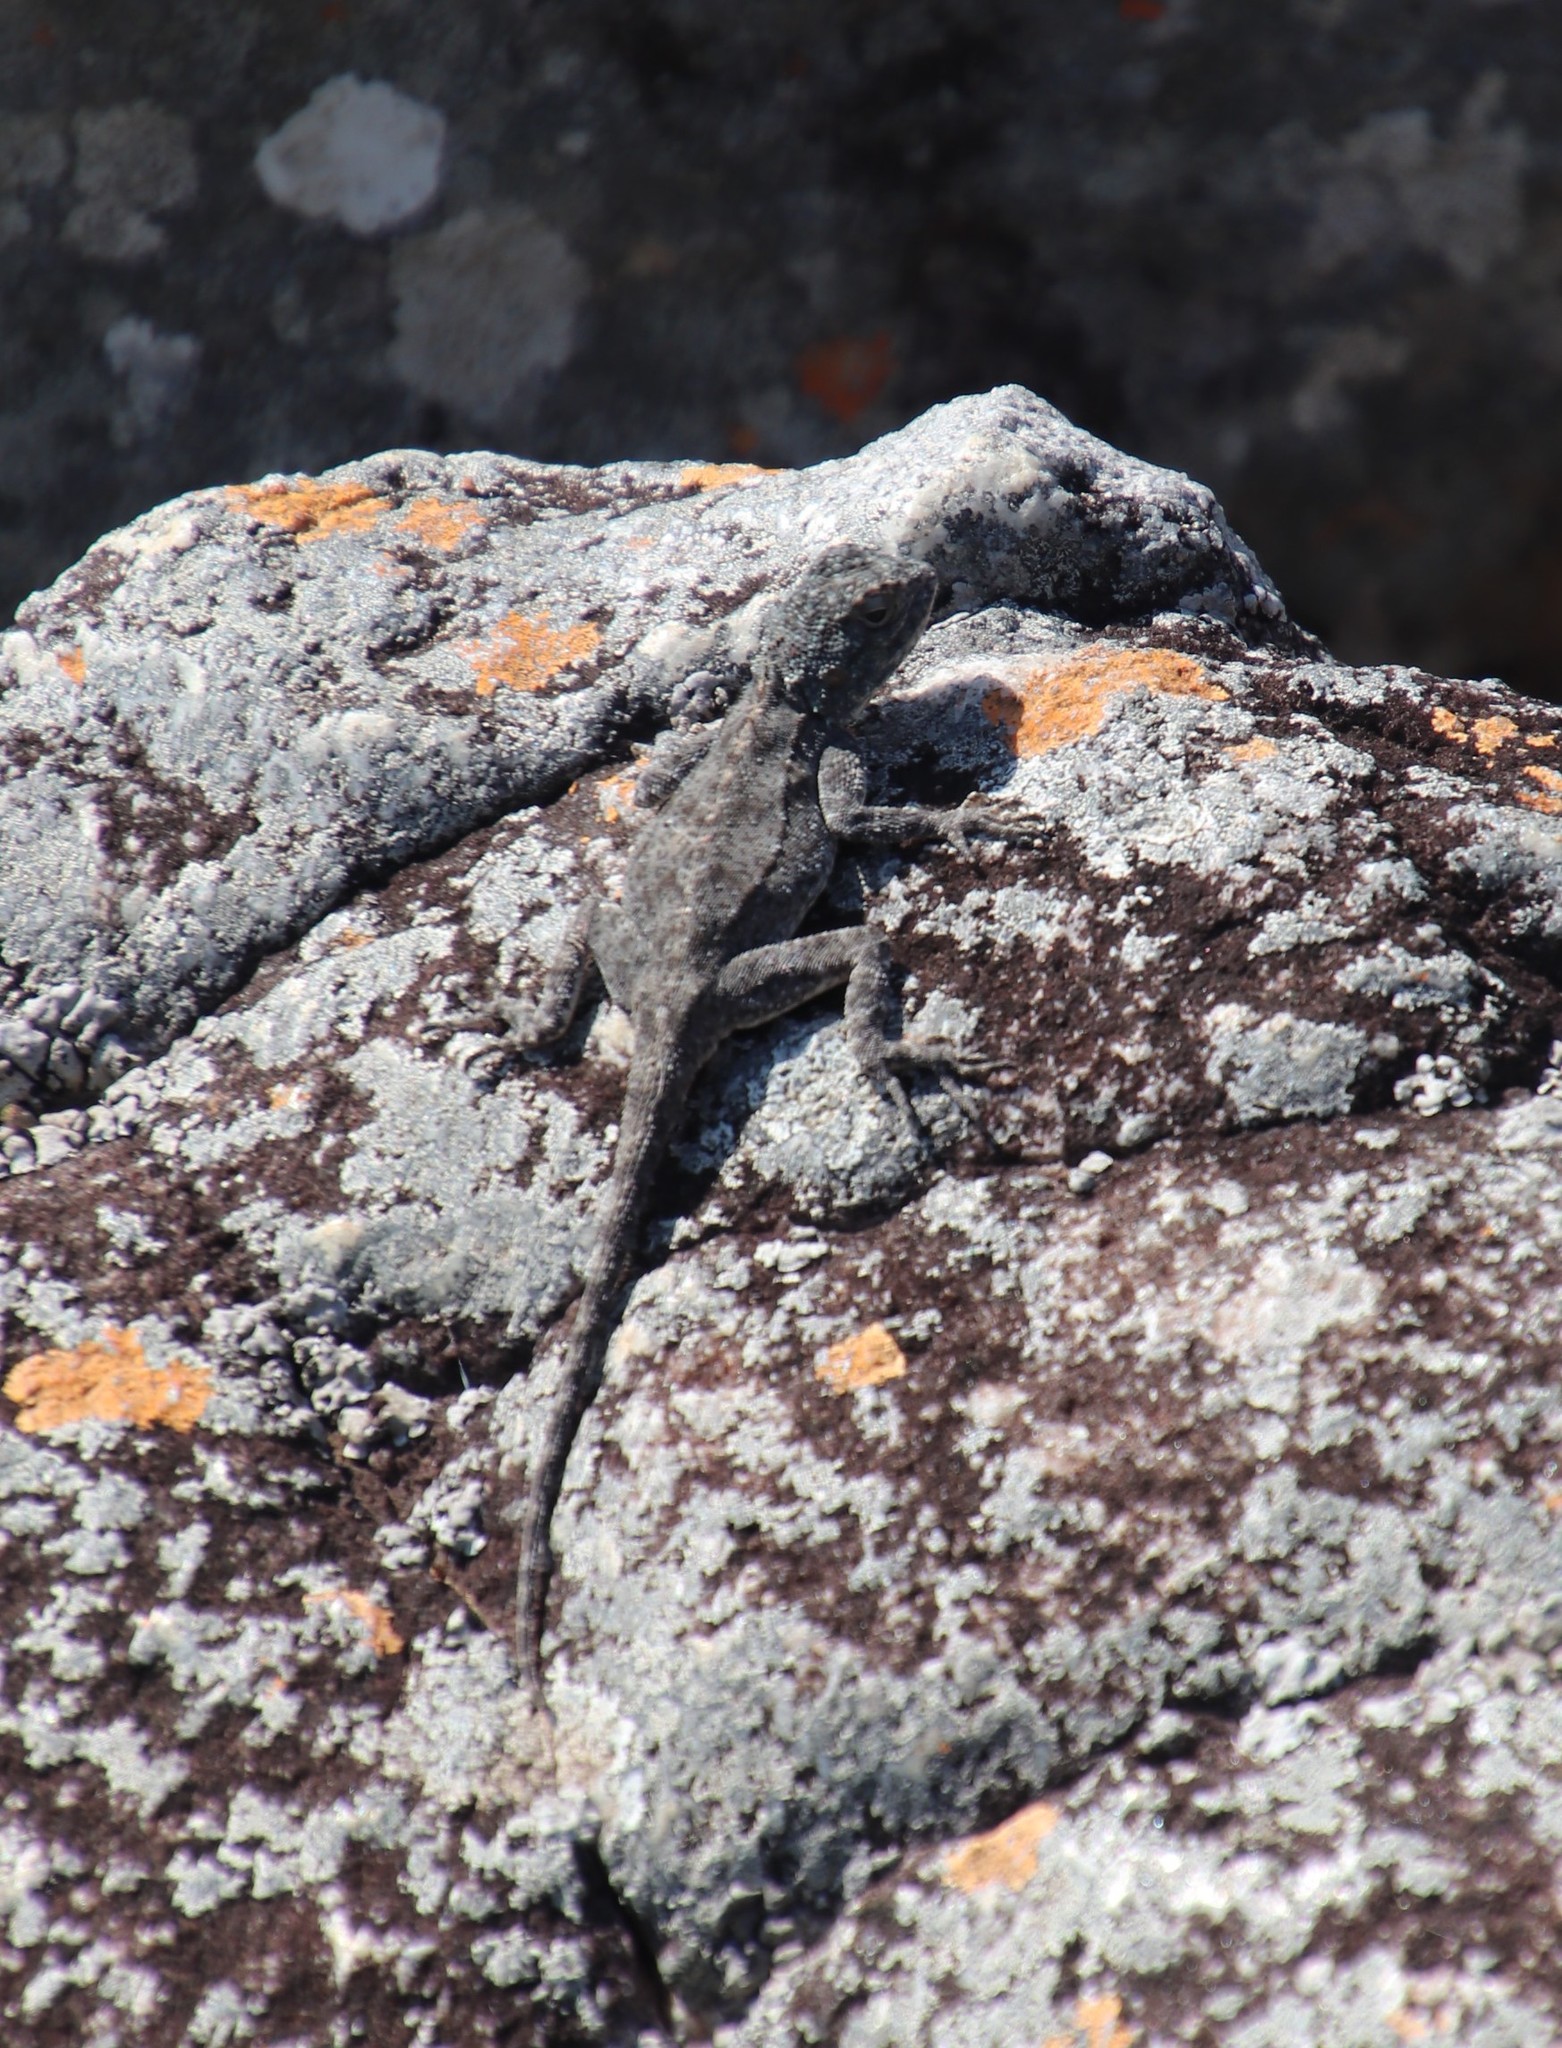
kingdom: Animalia
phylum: Chordata
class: Squamata
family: Agamidae
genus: Agama
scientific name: Agama atra
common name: Southern african rock agama
